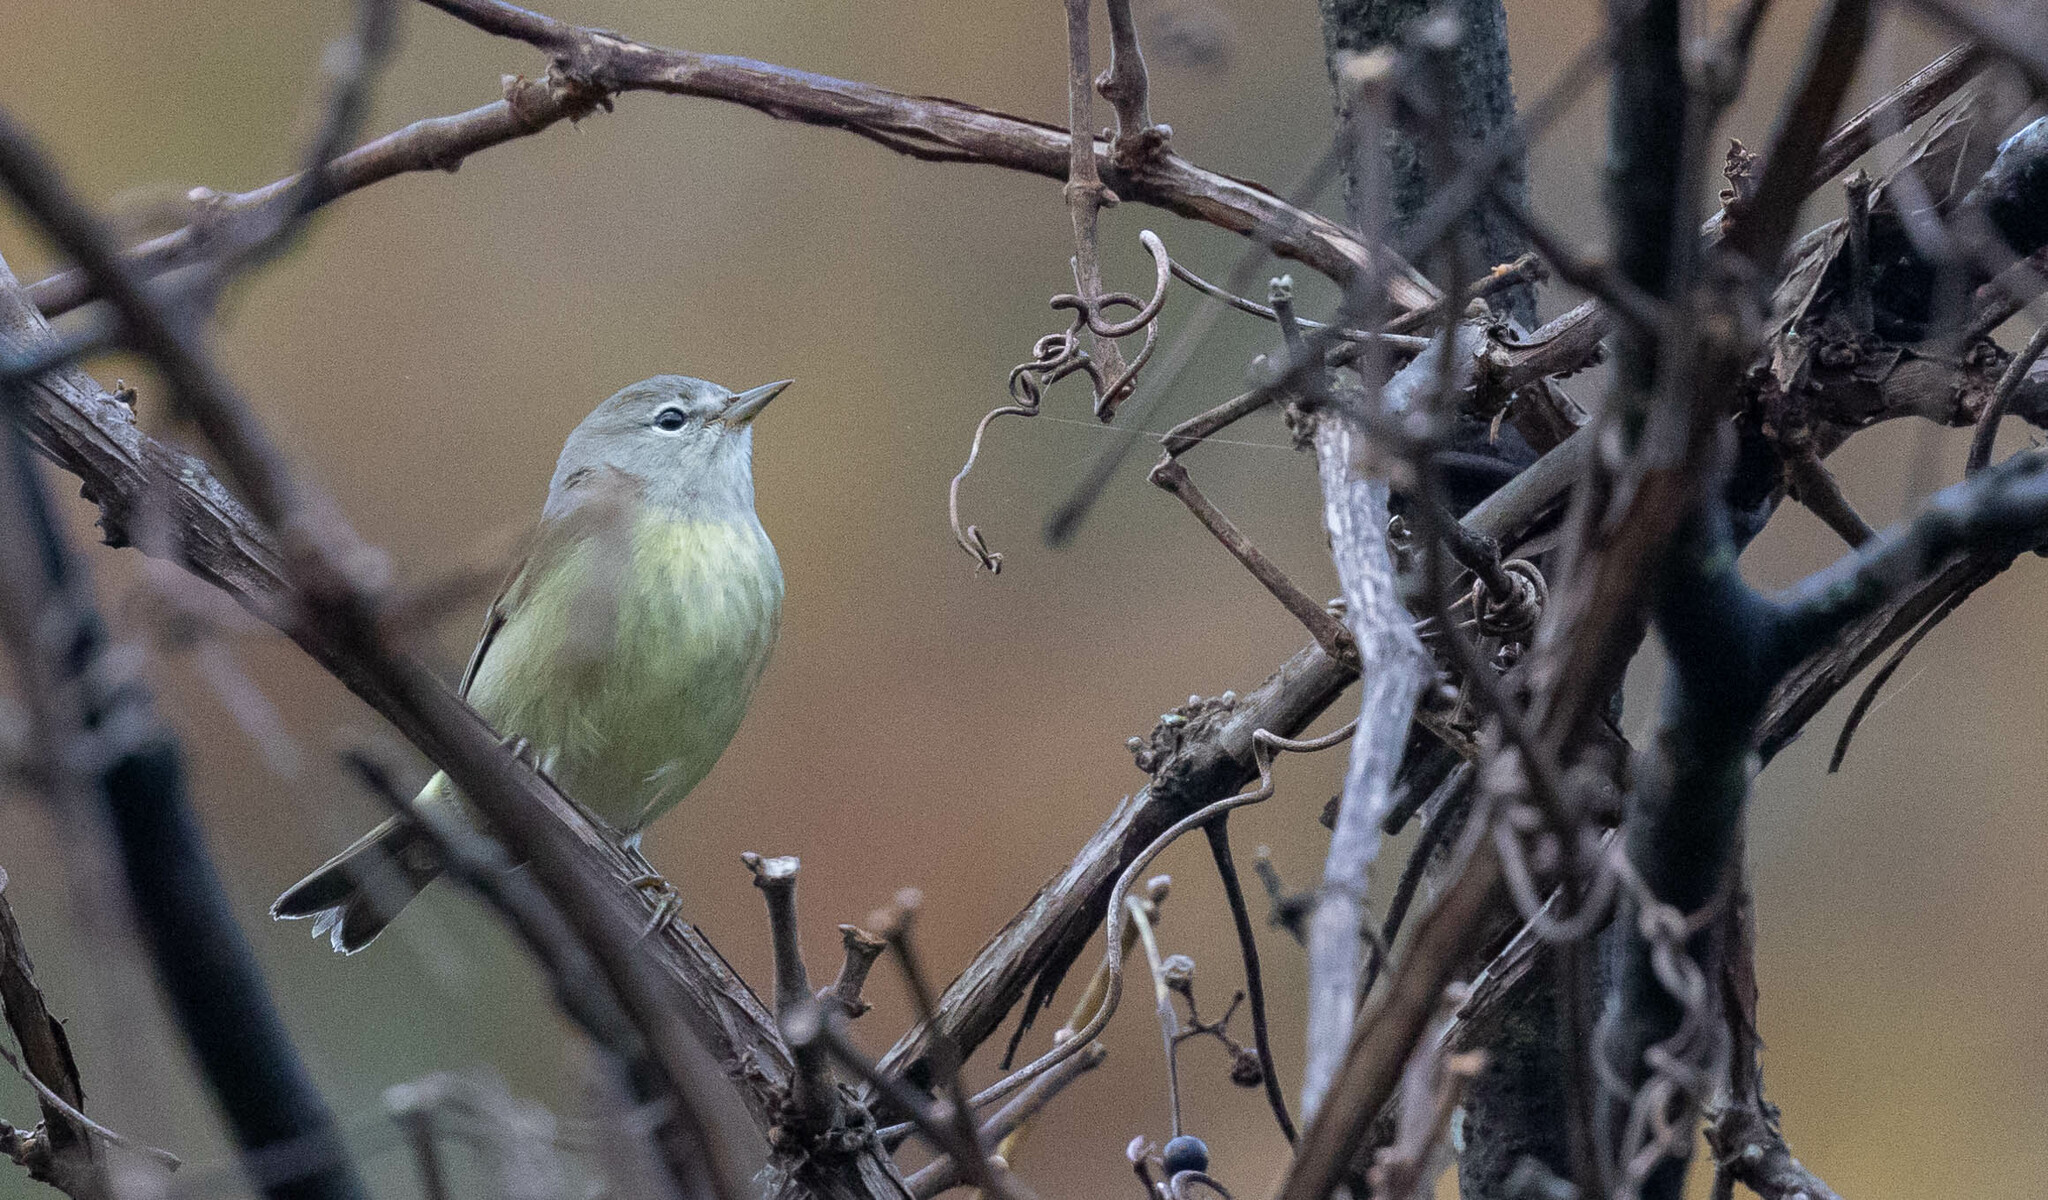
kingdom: Animalia
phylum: Chordata
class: Aves
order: Passeriformes
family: Parulidae
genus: Leiothlypis
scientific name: Leiothlypis celata
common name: Orange-crowned warbler
